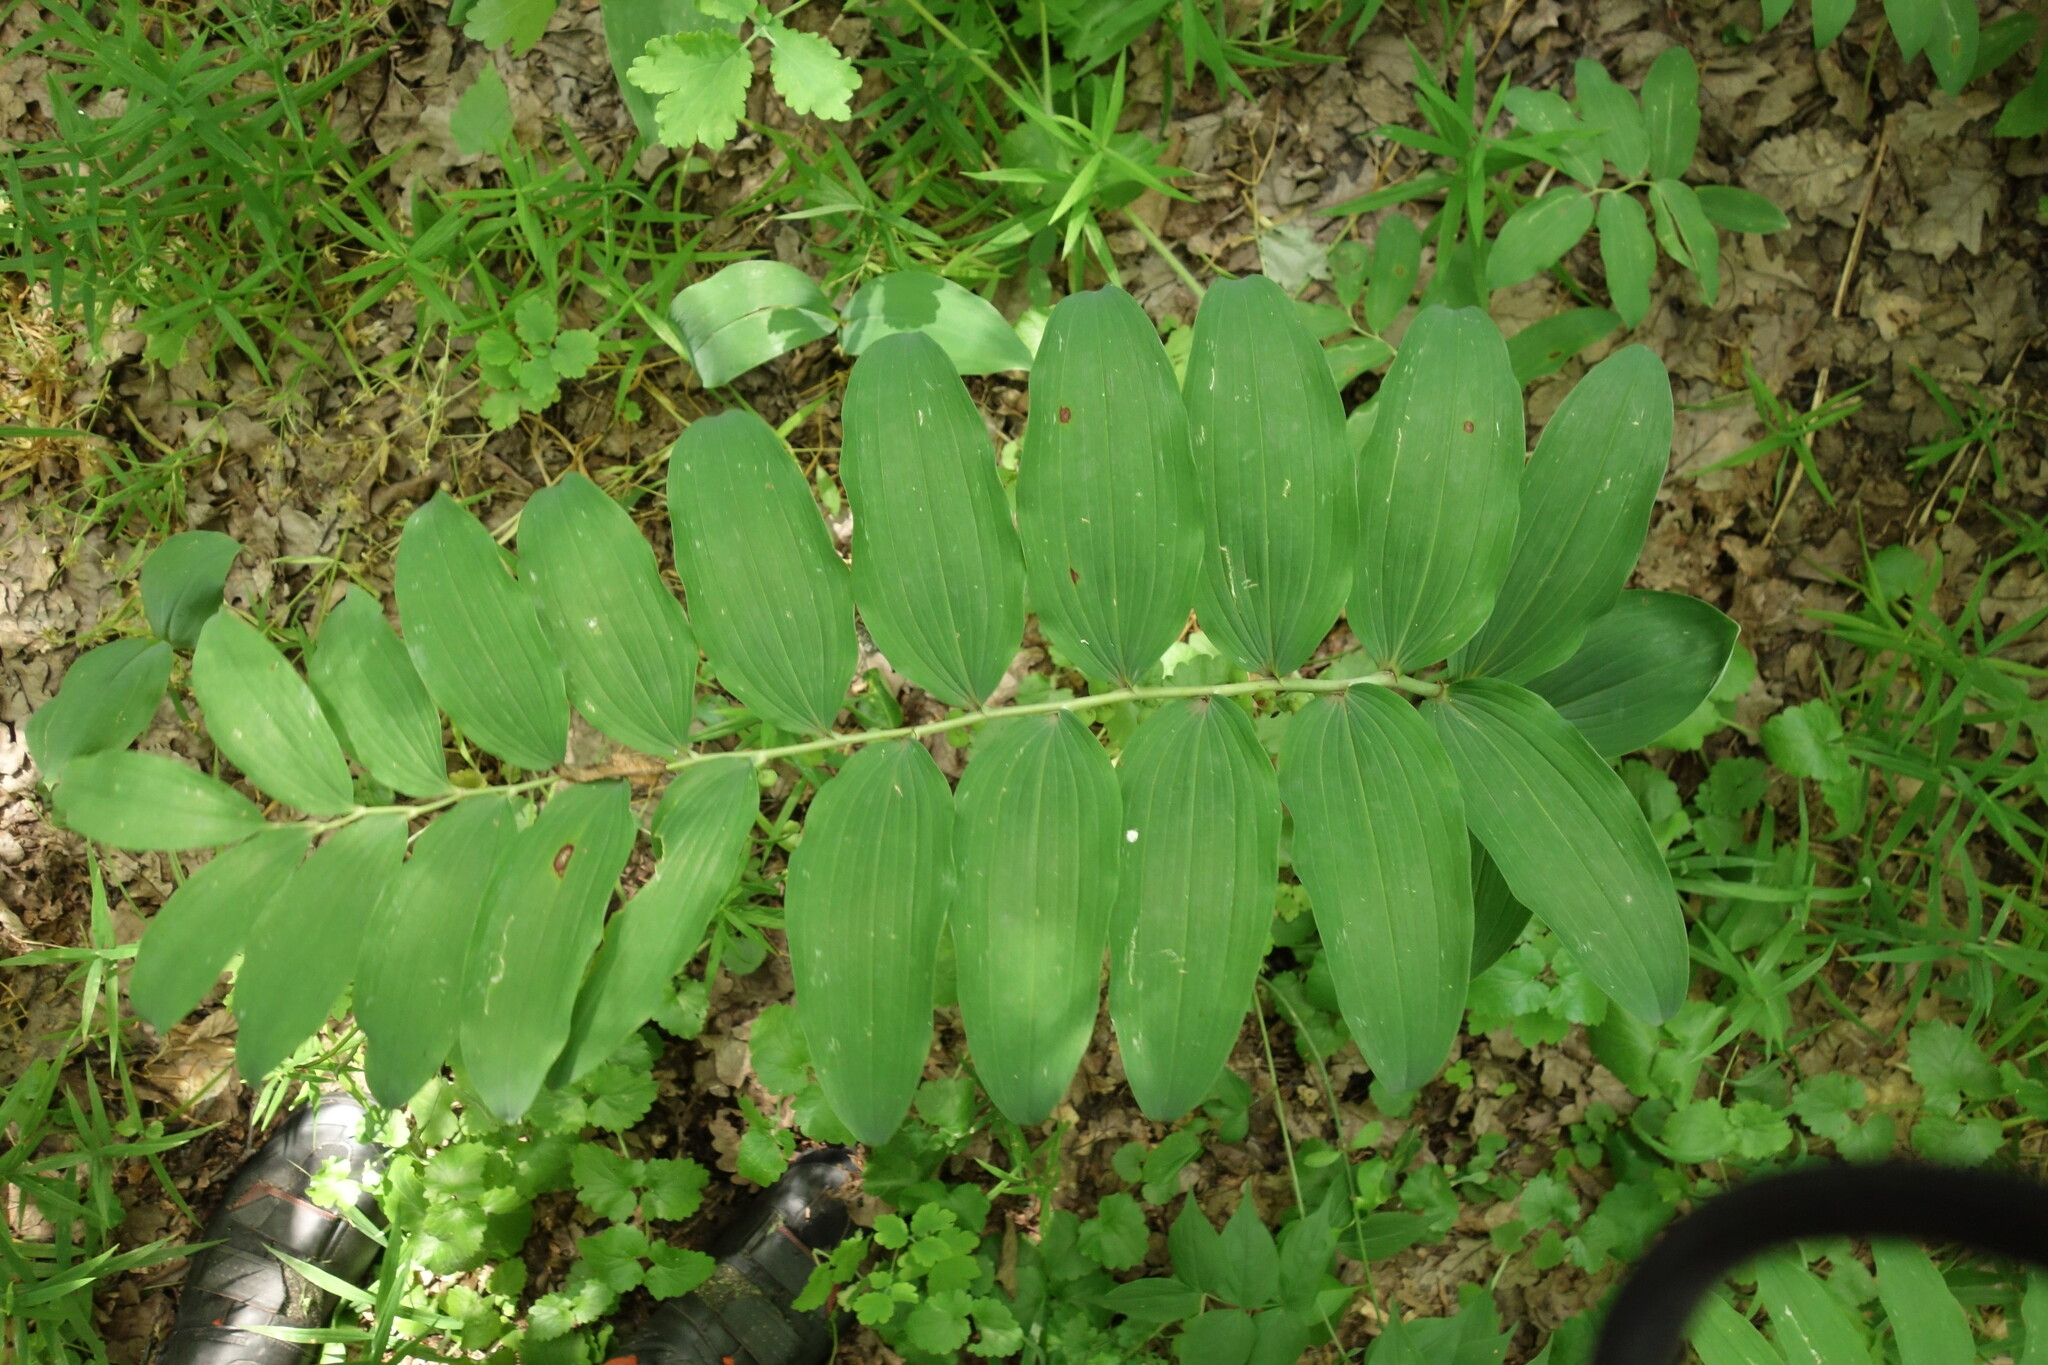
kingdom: Plantae
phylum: Tracheophyta
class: Liliopsida
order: Asparagales
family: Asparagaceae
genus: Polygonatum
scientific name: Polygonatum multiflorum
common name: Solomon's-seal
